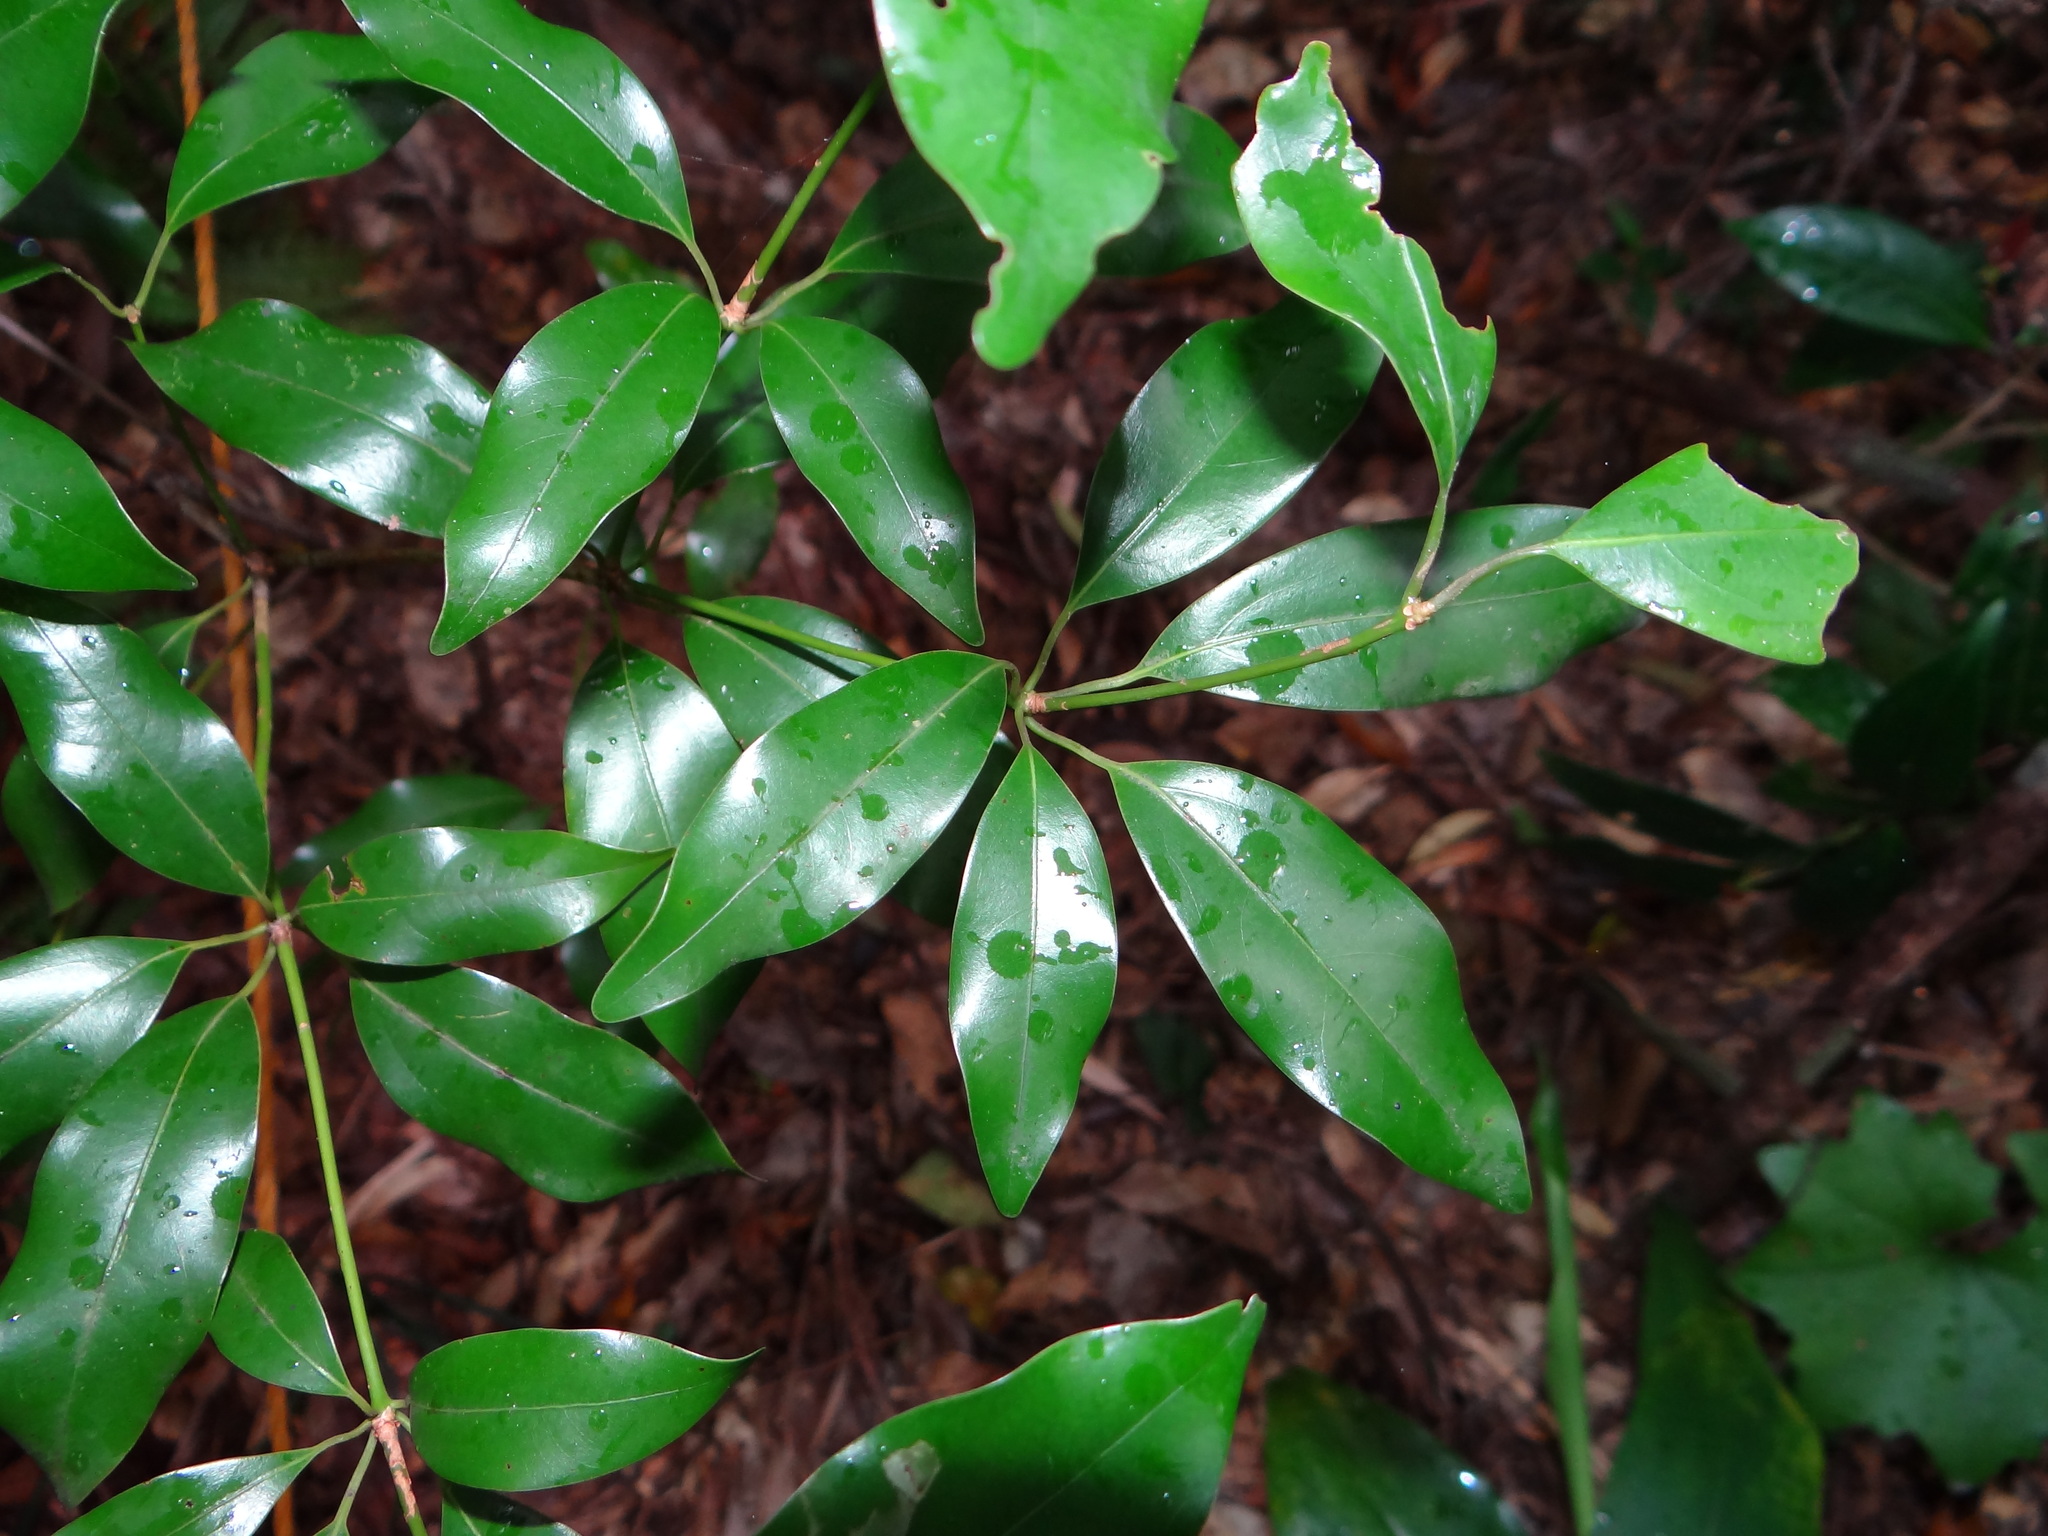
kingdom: Plantae
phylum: Tracheophyta
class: Magnoliopsida
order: Laurales
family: Lauraceae
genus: Neolitsea
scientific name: Neolitsea hiiranensis
